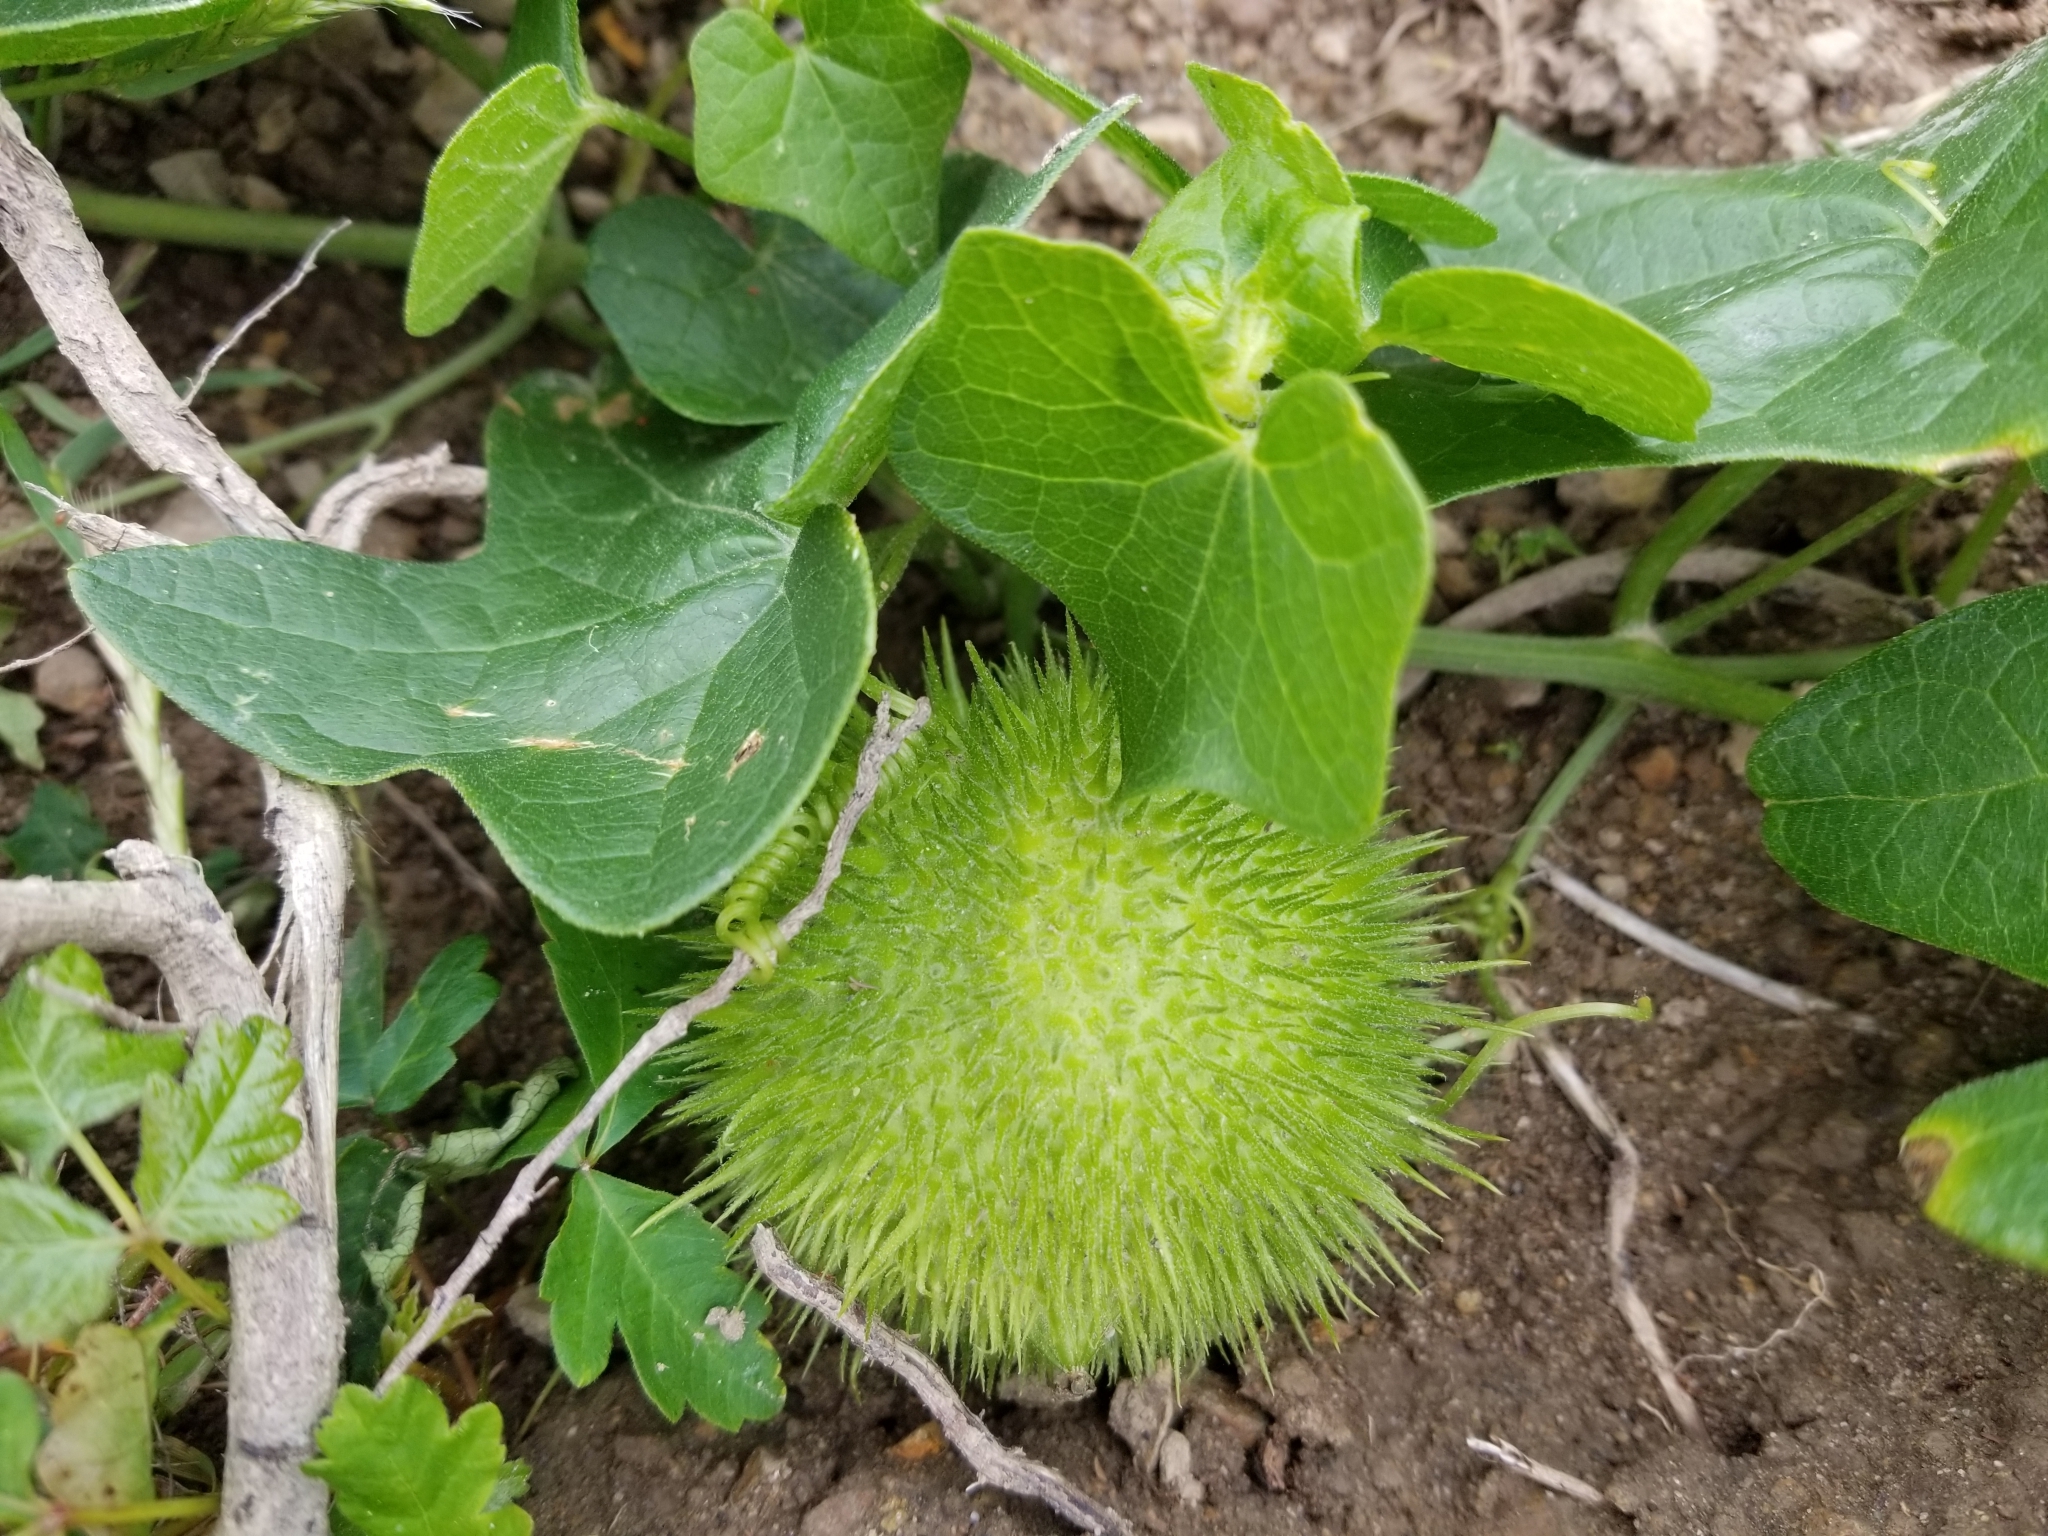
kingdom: Plantae
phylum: Tracheophyta
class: Magnoliopsida
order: Cucurbitales
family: Cucurbitaceae
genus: Marah
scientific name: Marah fabacea
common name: California manroot
